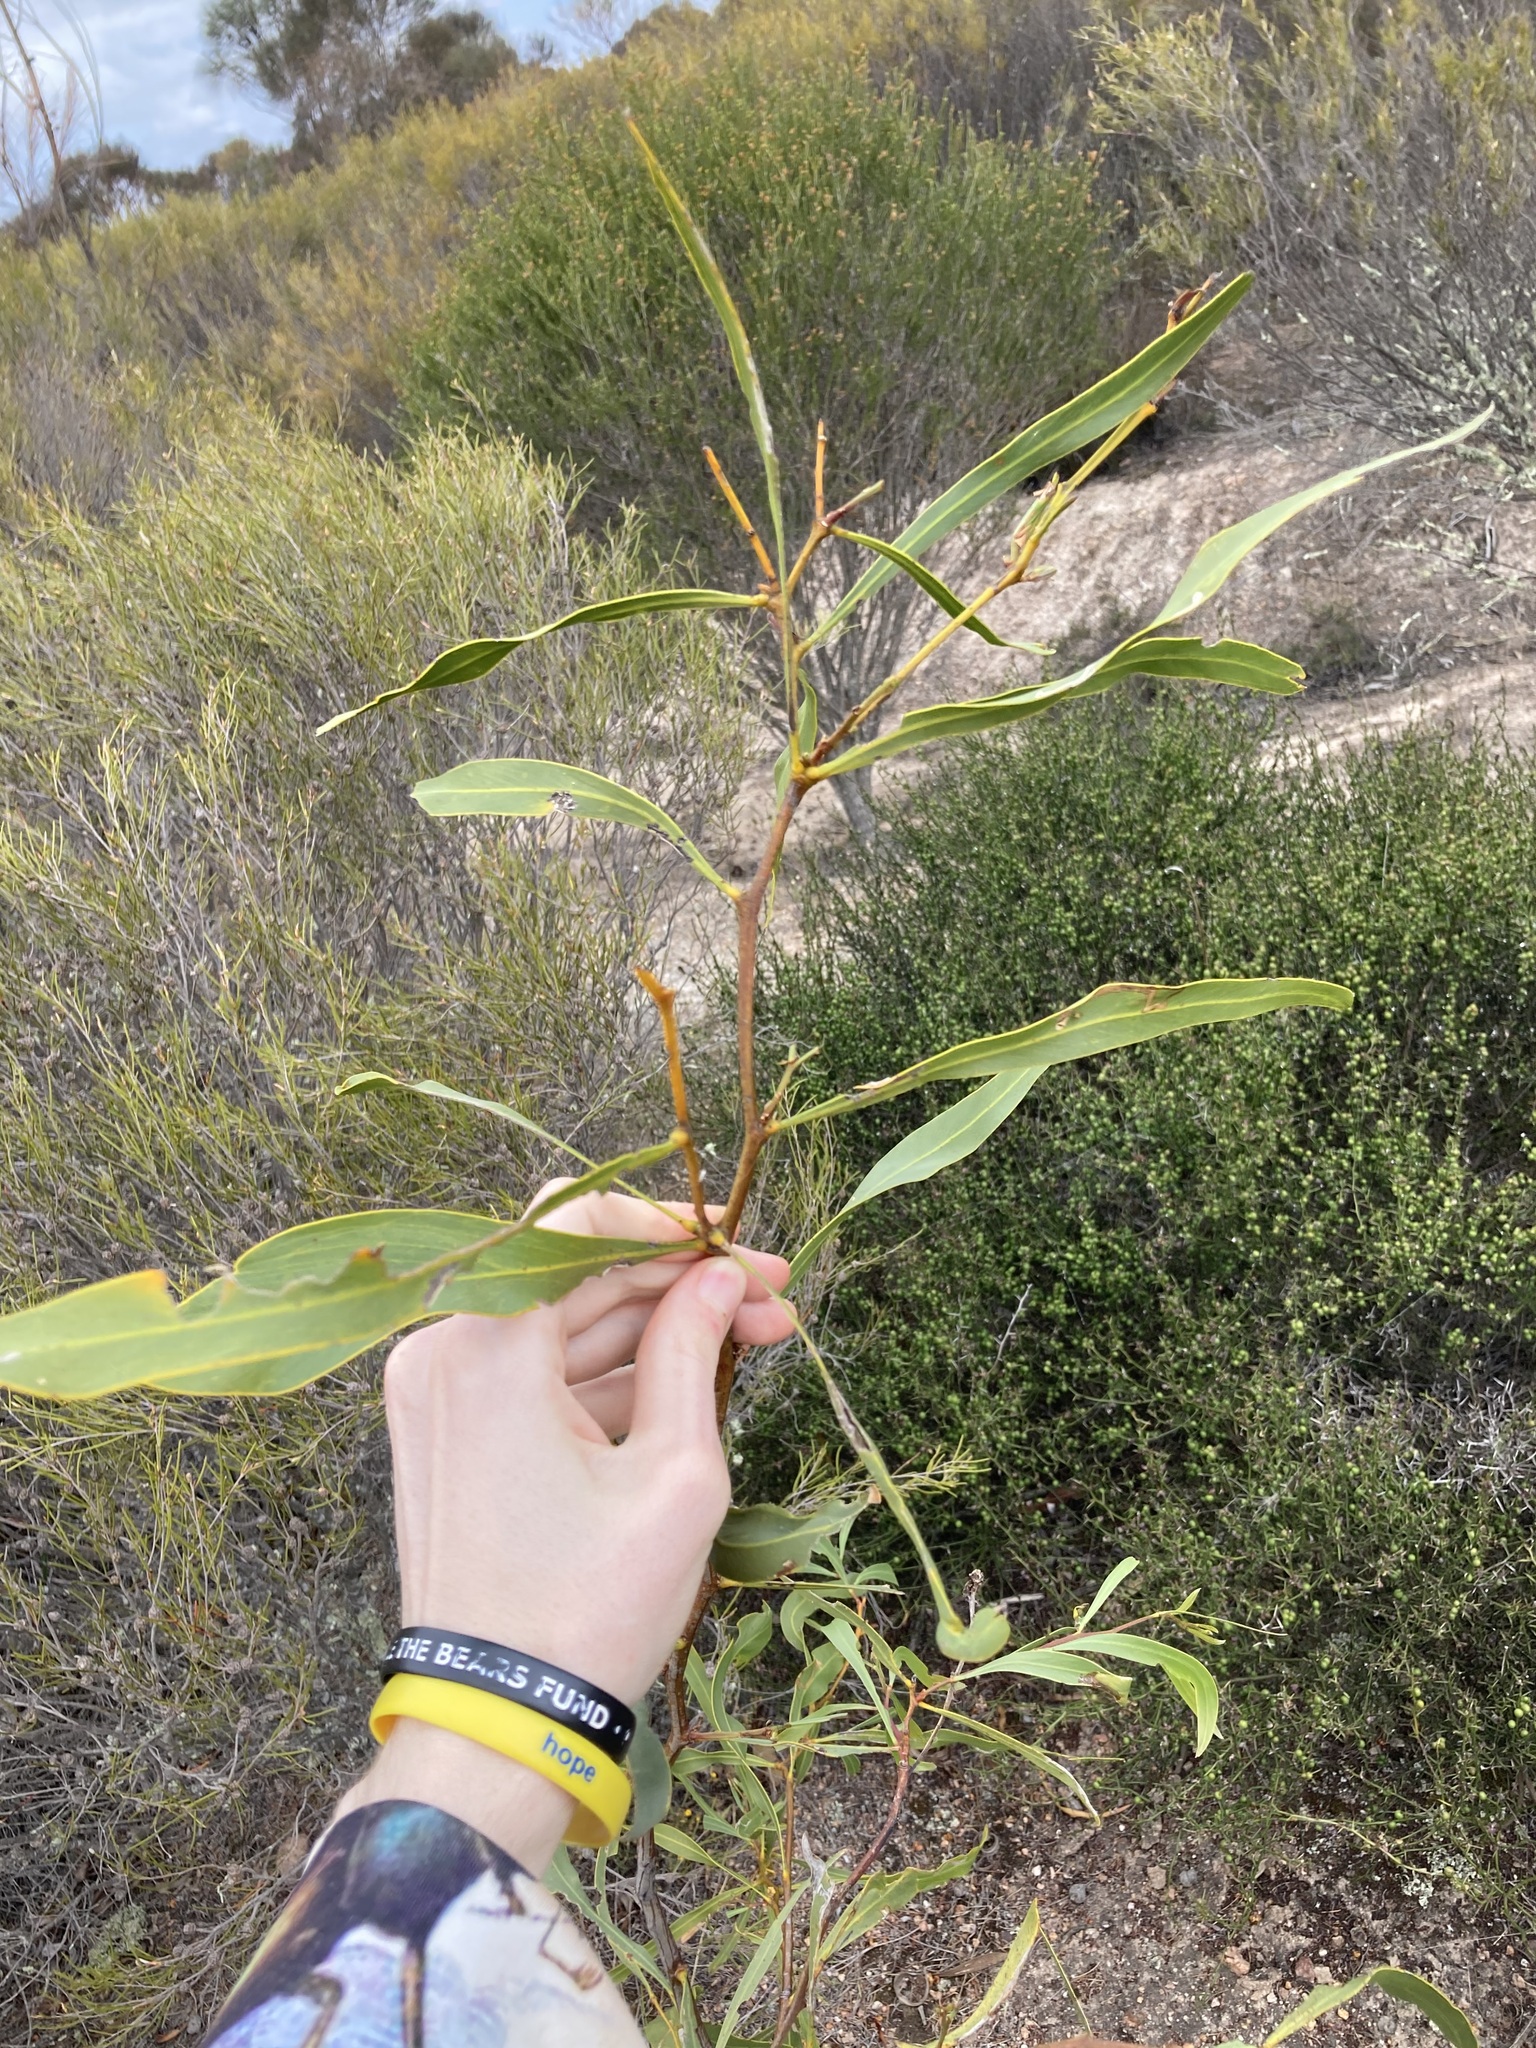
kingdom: Plantae
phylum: Tracheophyta
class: Magnoliopsida
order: Fabales
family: Fabaceae
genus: Acacia
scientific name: Acacia saligna
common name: Orange wattle
